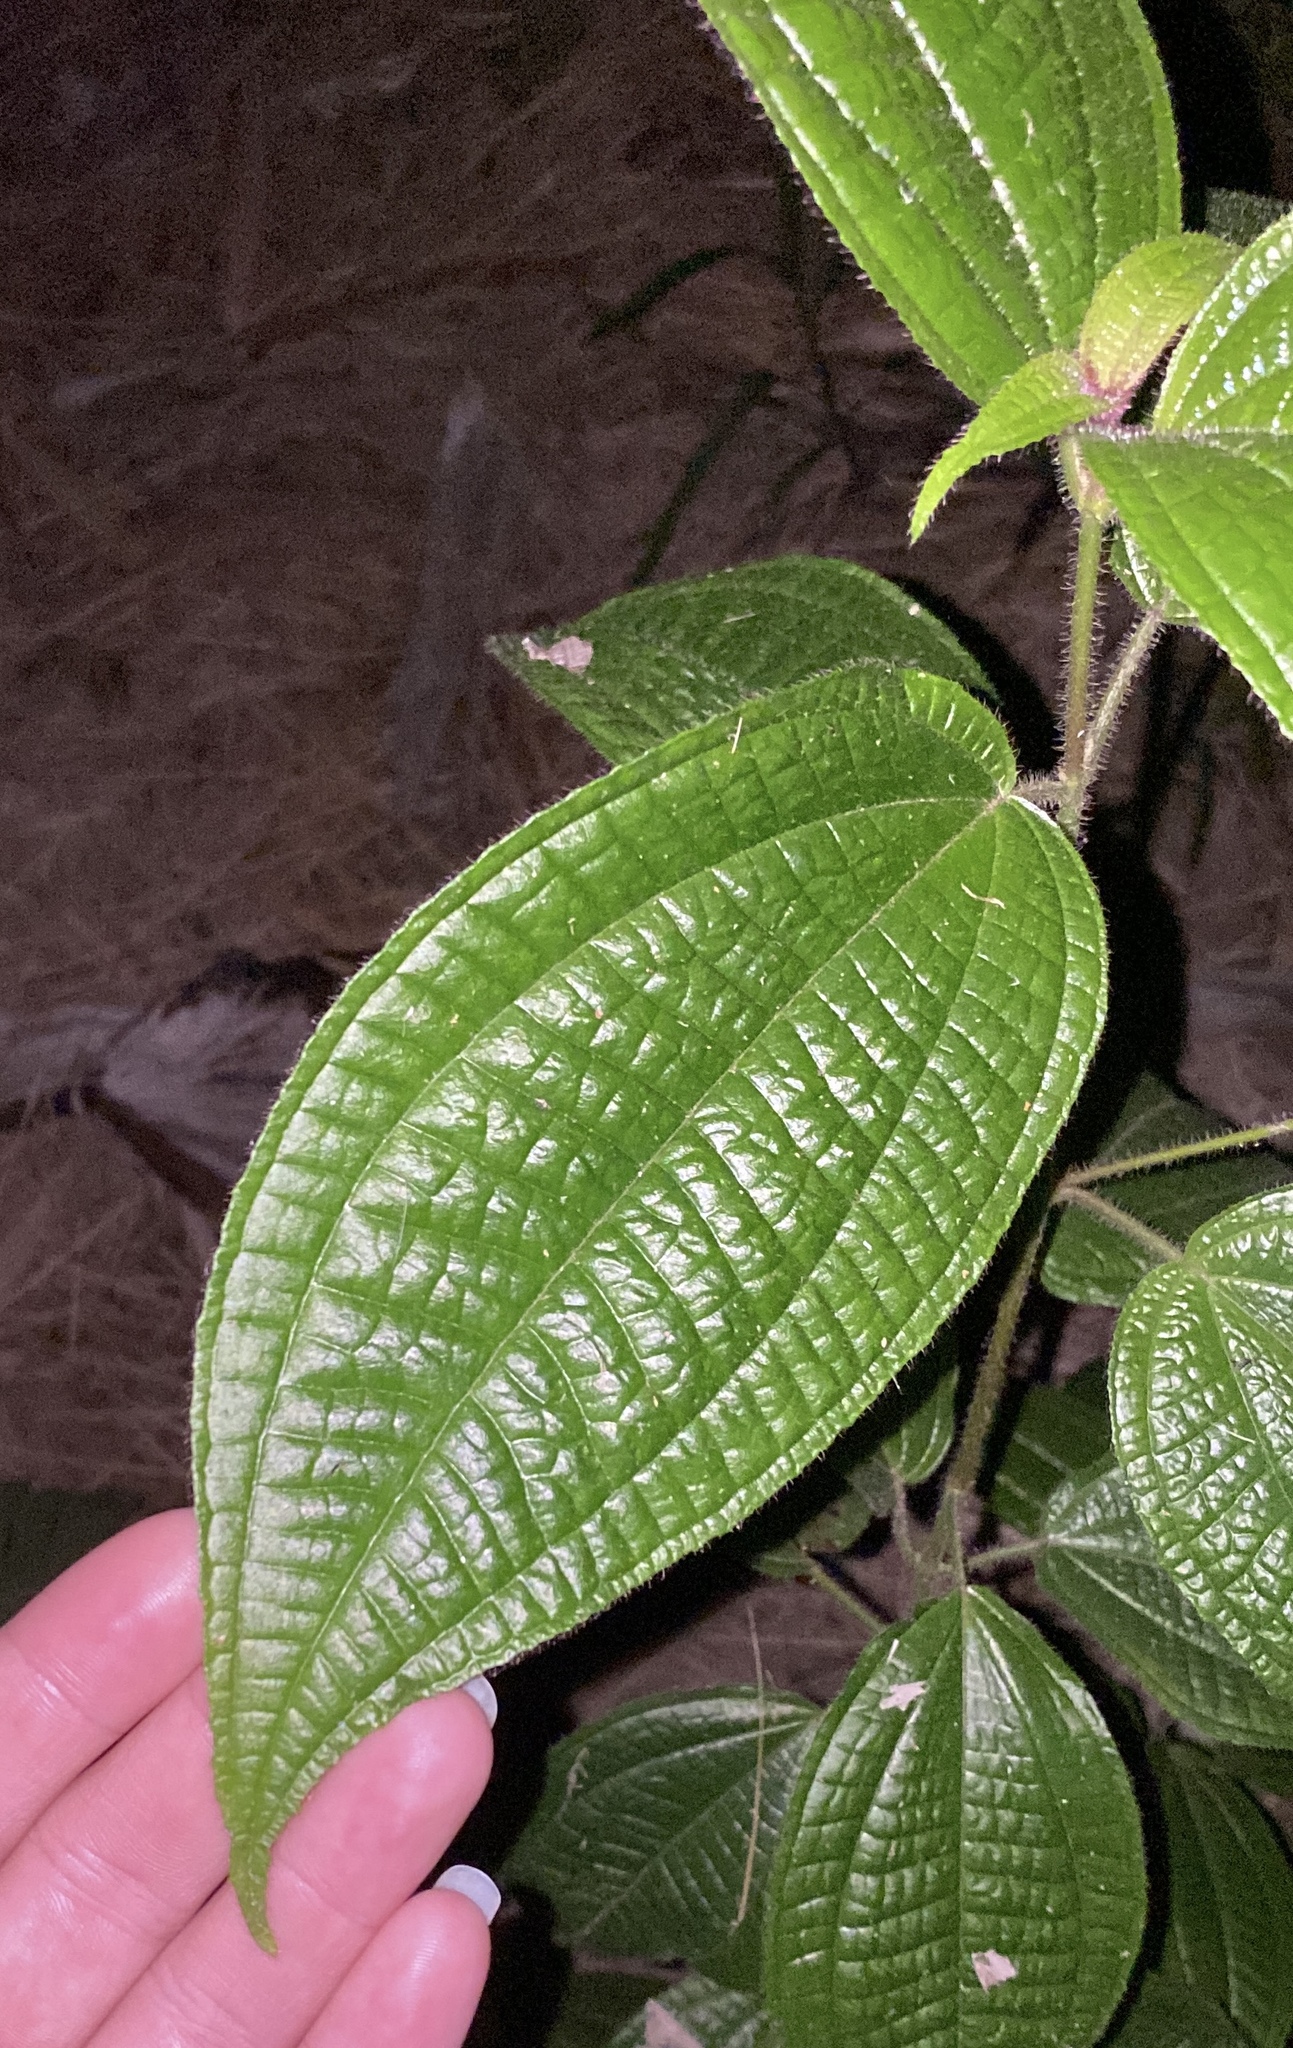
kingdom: Plantae
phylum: Tracheophyta
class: Magnoliopsida
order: Myrtales
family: Melastomataceae
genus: Miconia
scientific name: Miconia crenata
